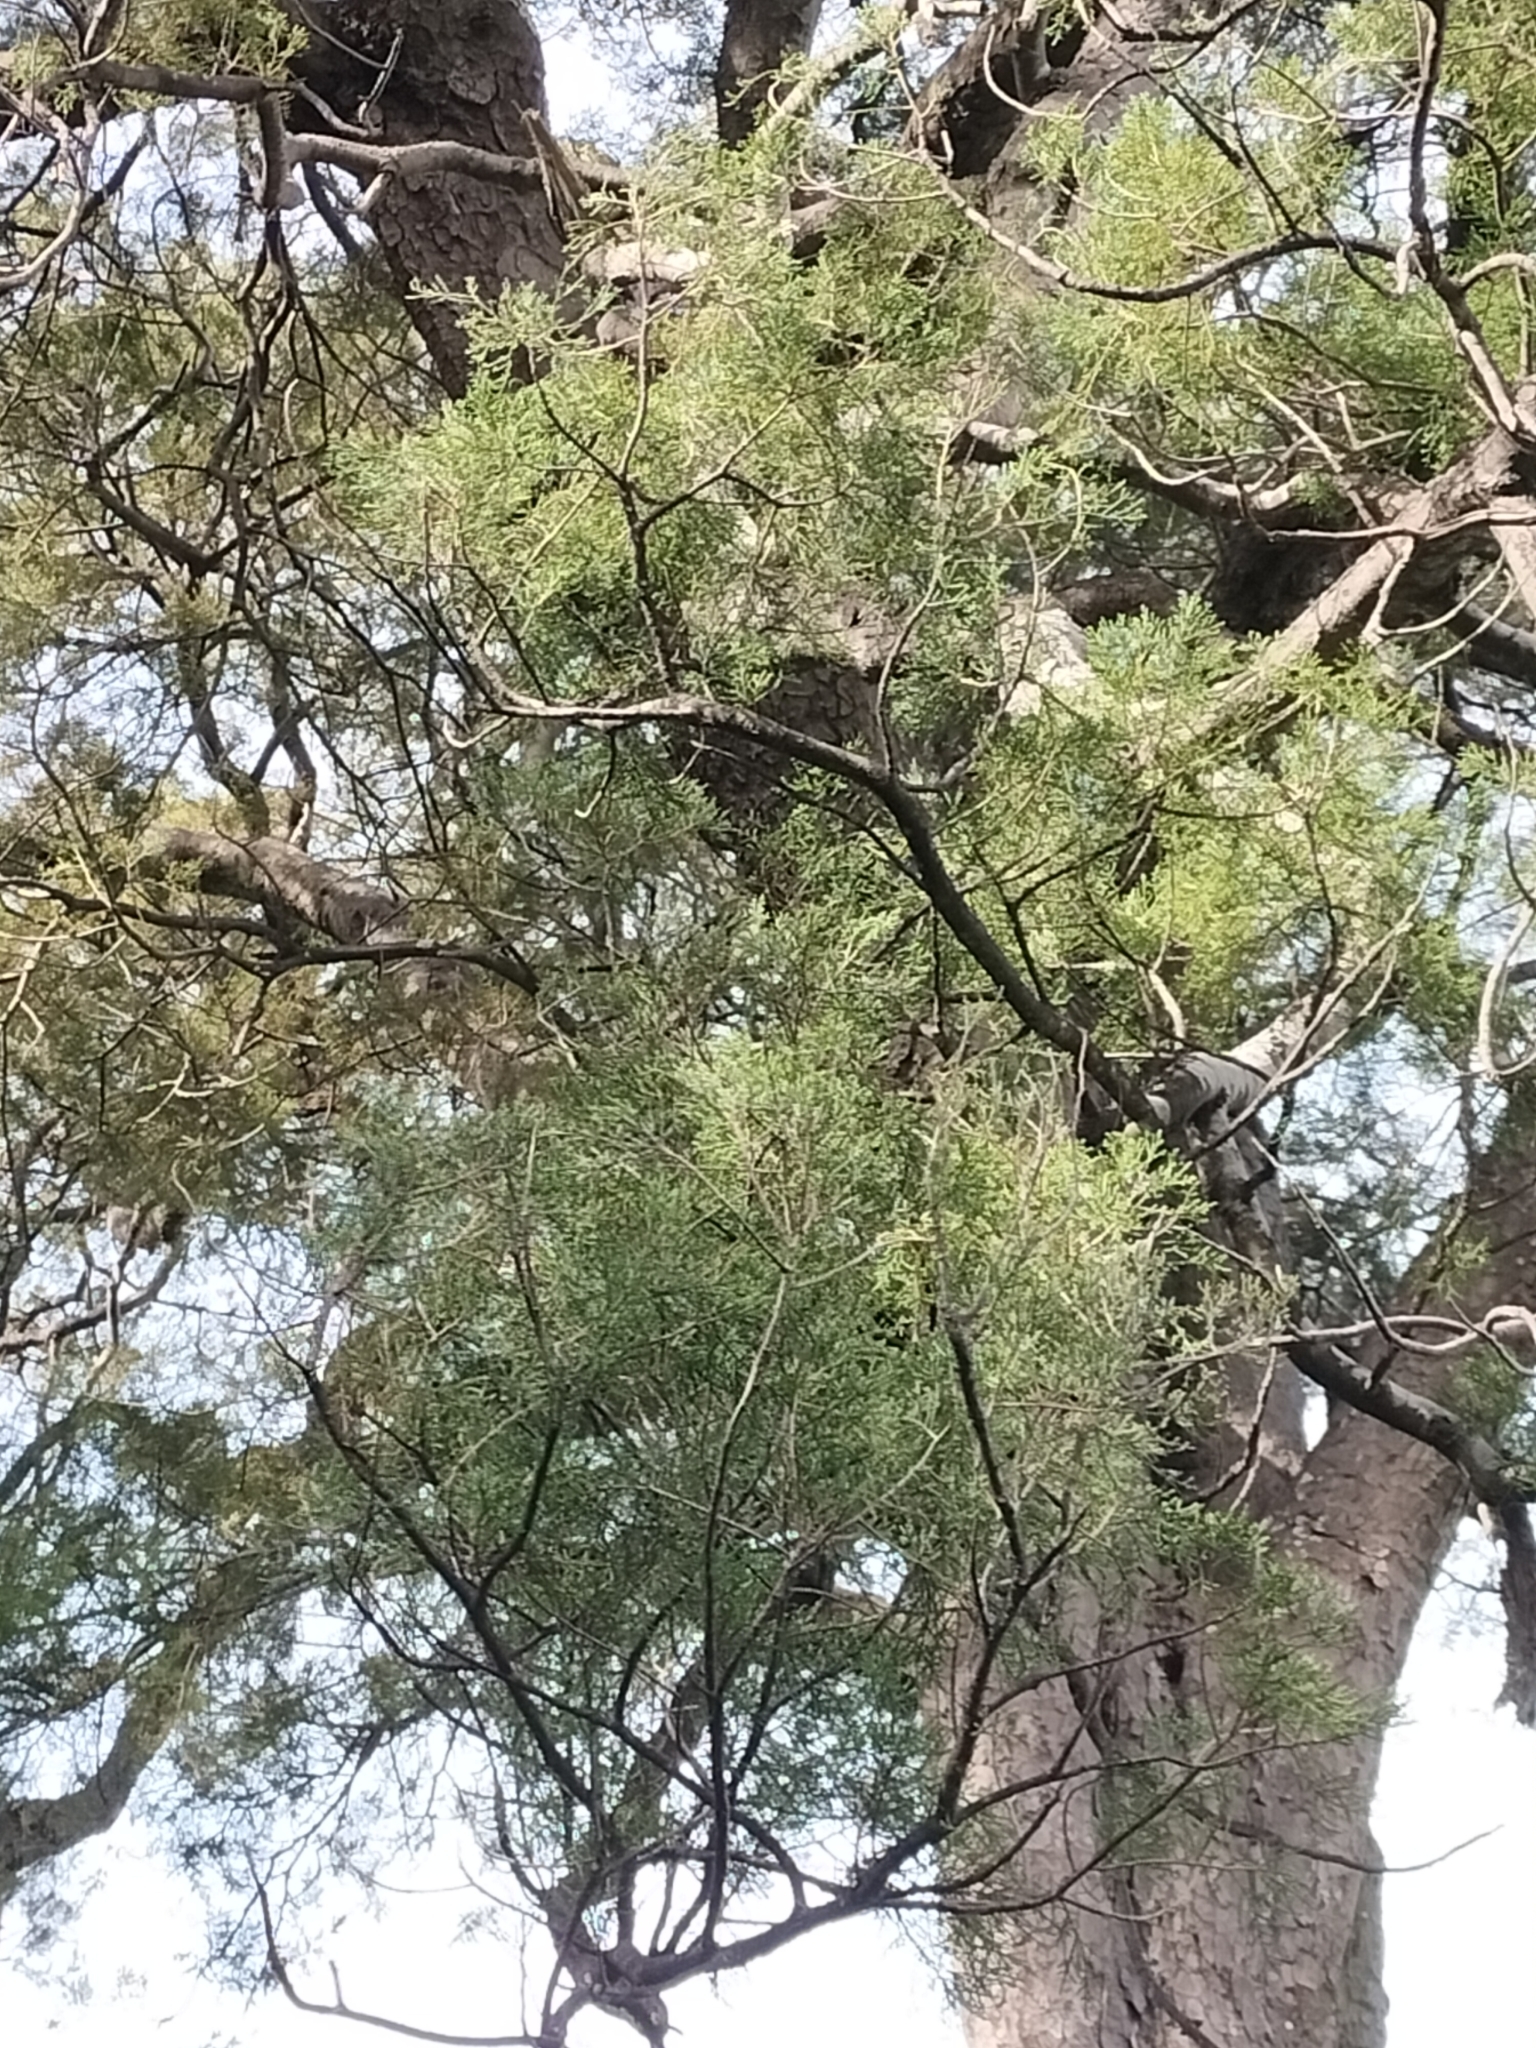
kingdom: Plantae
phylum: Tracheophyta
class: Pinopsida
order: Pinales
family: Podocarpaceae
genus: Prumnopitys
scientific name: Prumnopitys taxifolia
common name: Matai
